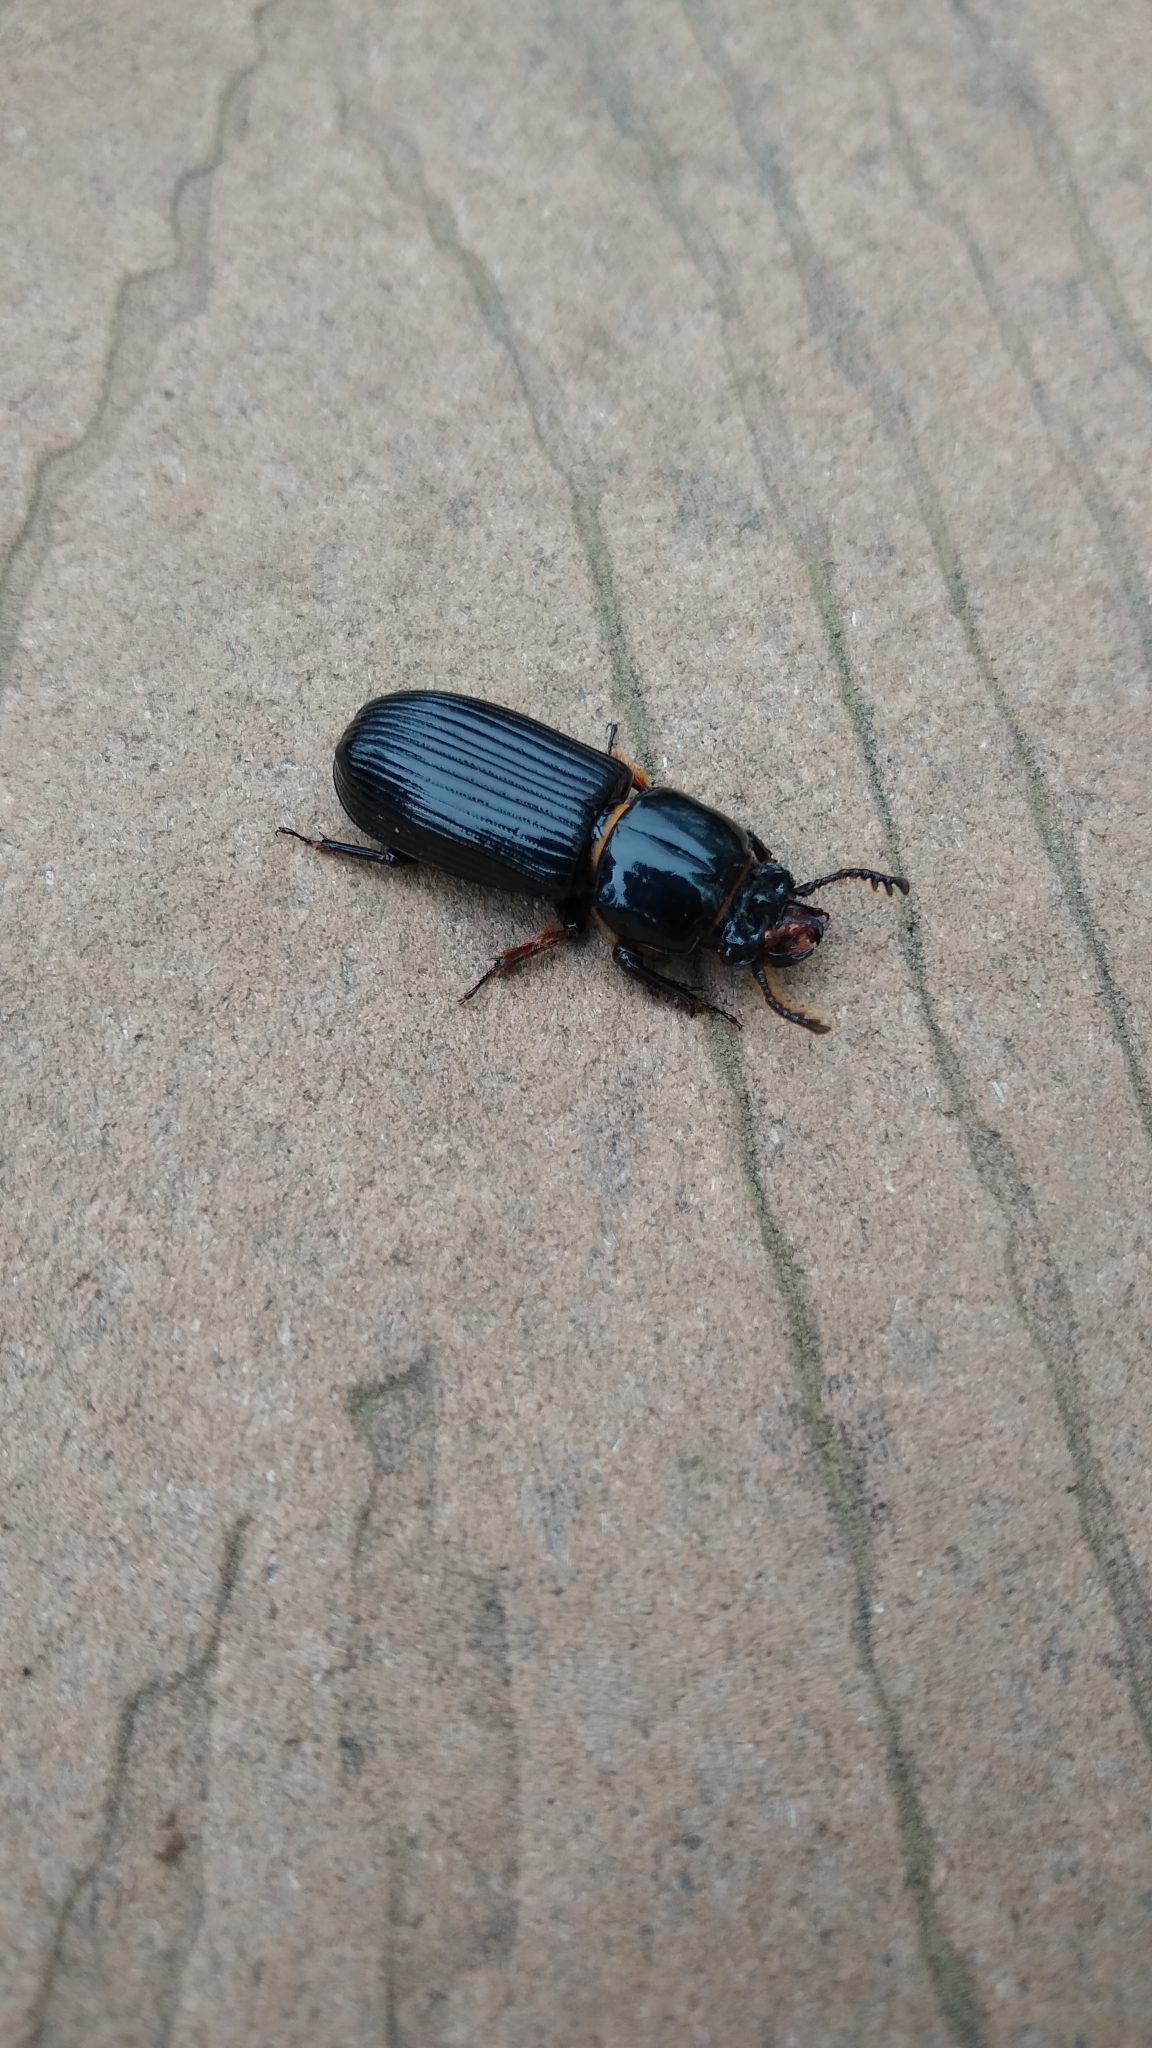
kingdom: Animalia
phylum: Arthropoda
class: Insecta
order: Coleoptera
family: Passalidae
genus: Odontotaenius
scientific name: Odontotaenius disjunctus
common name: Patent leather beetle
